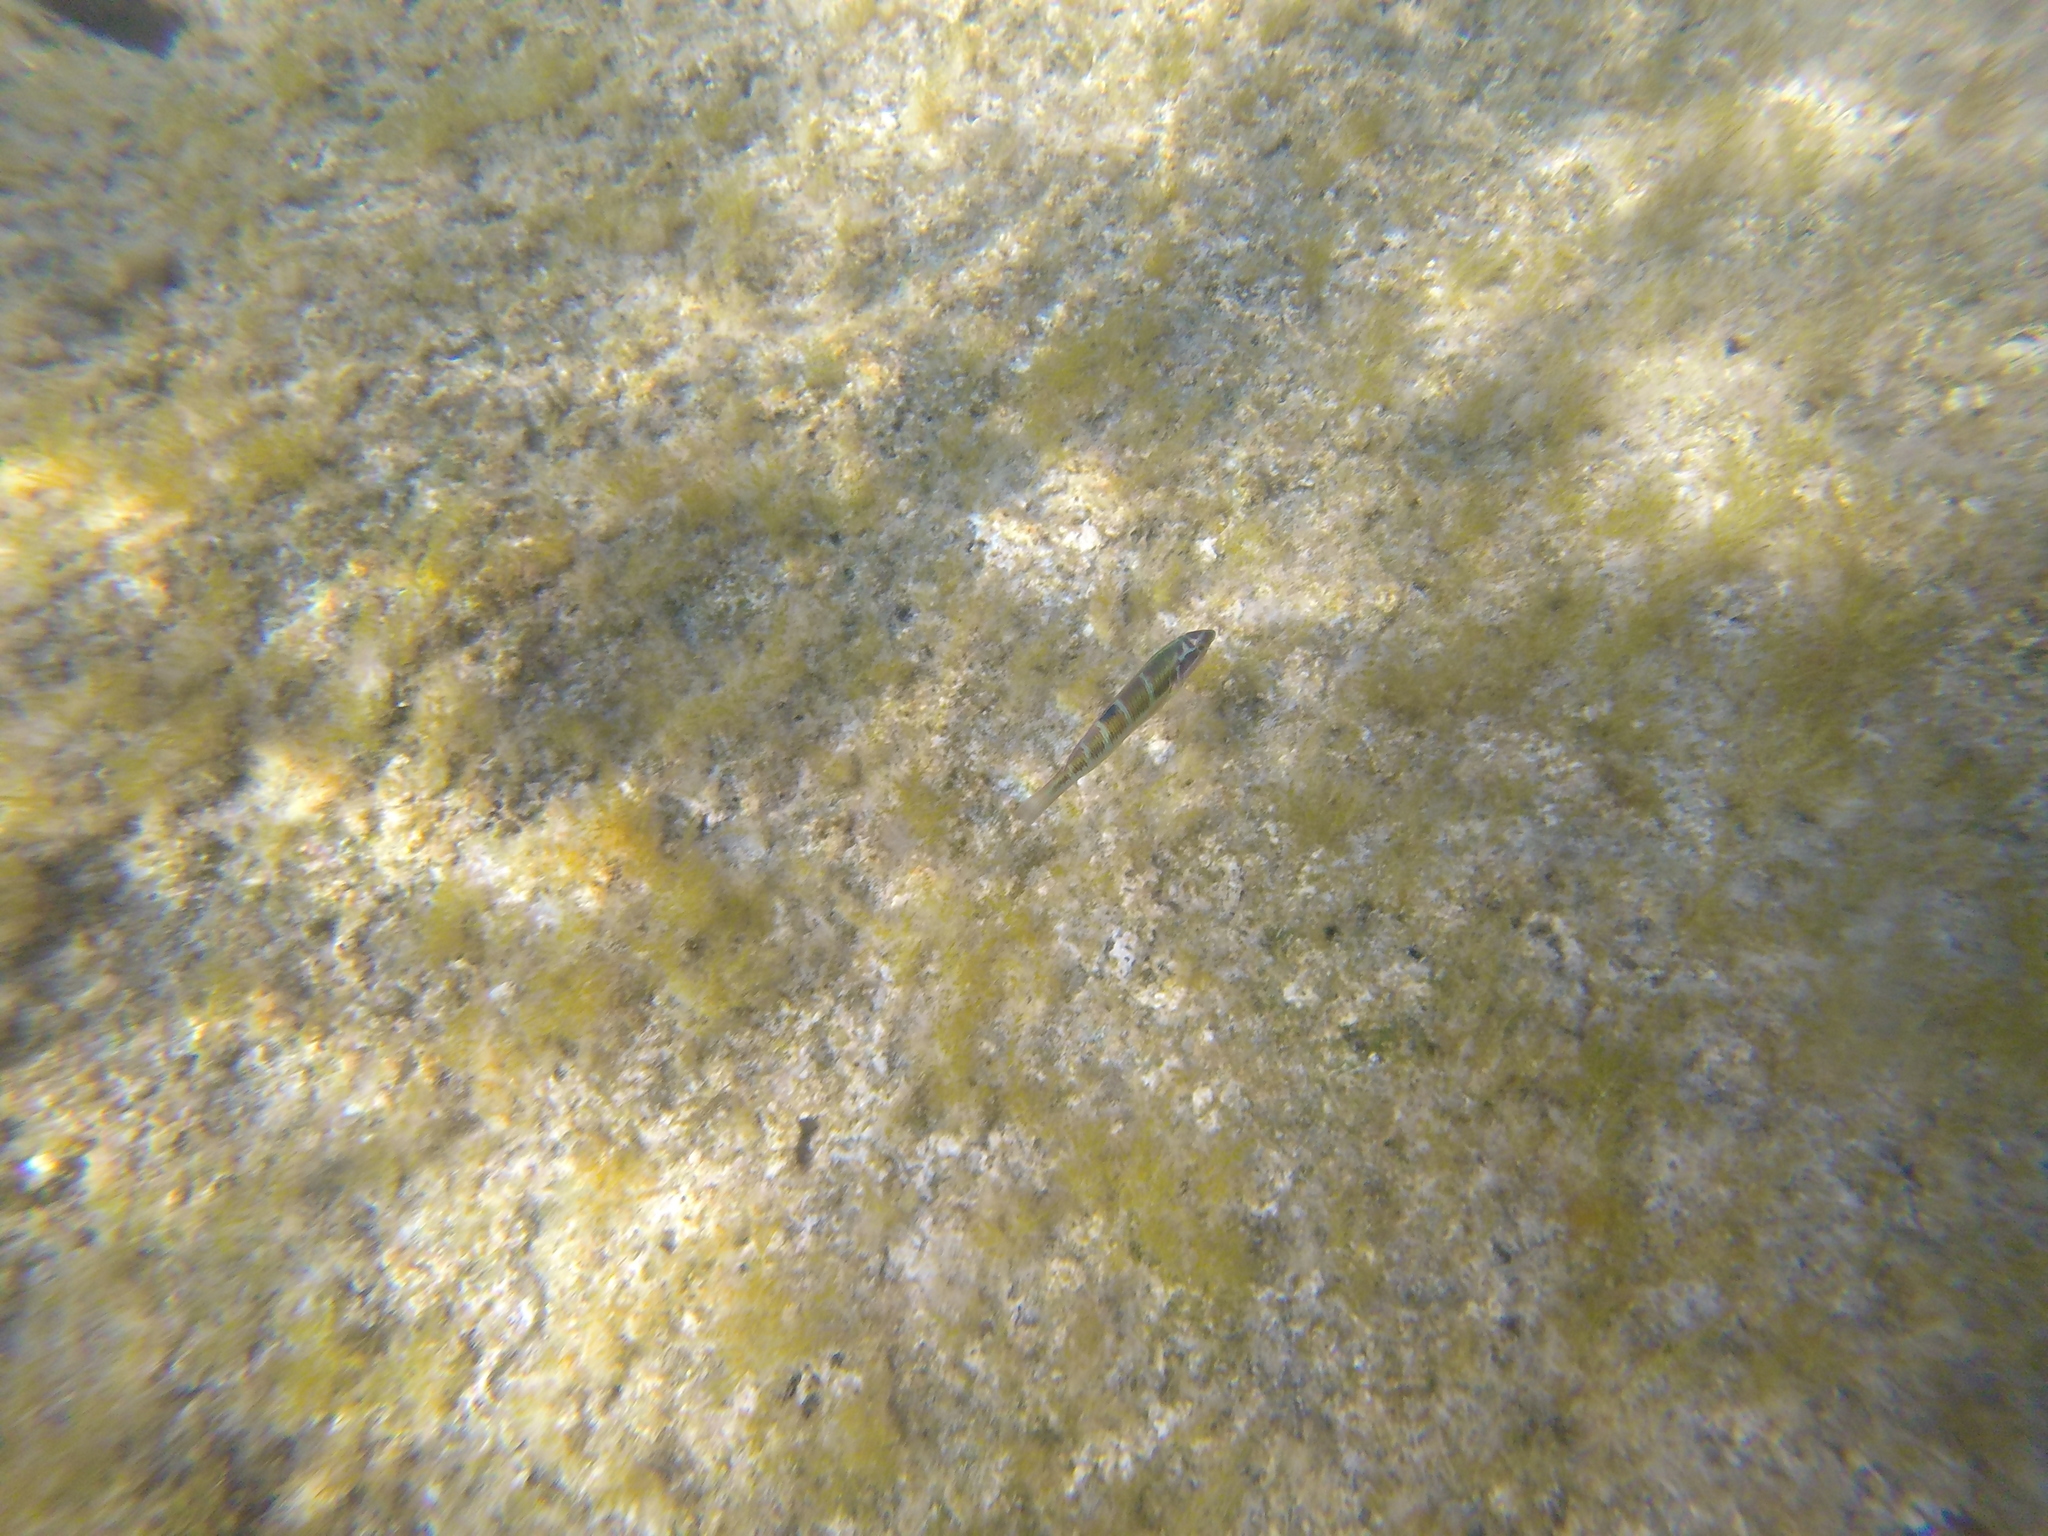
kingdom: Animalia
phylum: Chordata
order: Perciformes
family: Labridae
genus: Thalassoma
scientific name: Thalassoma pavo
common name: Ornate wrasse
